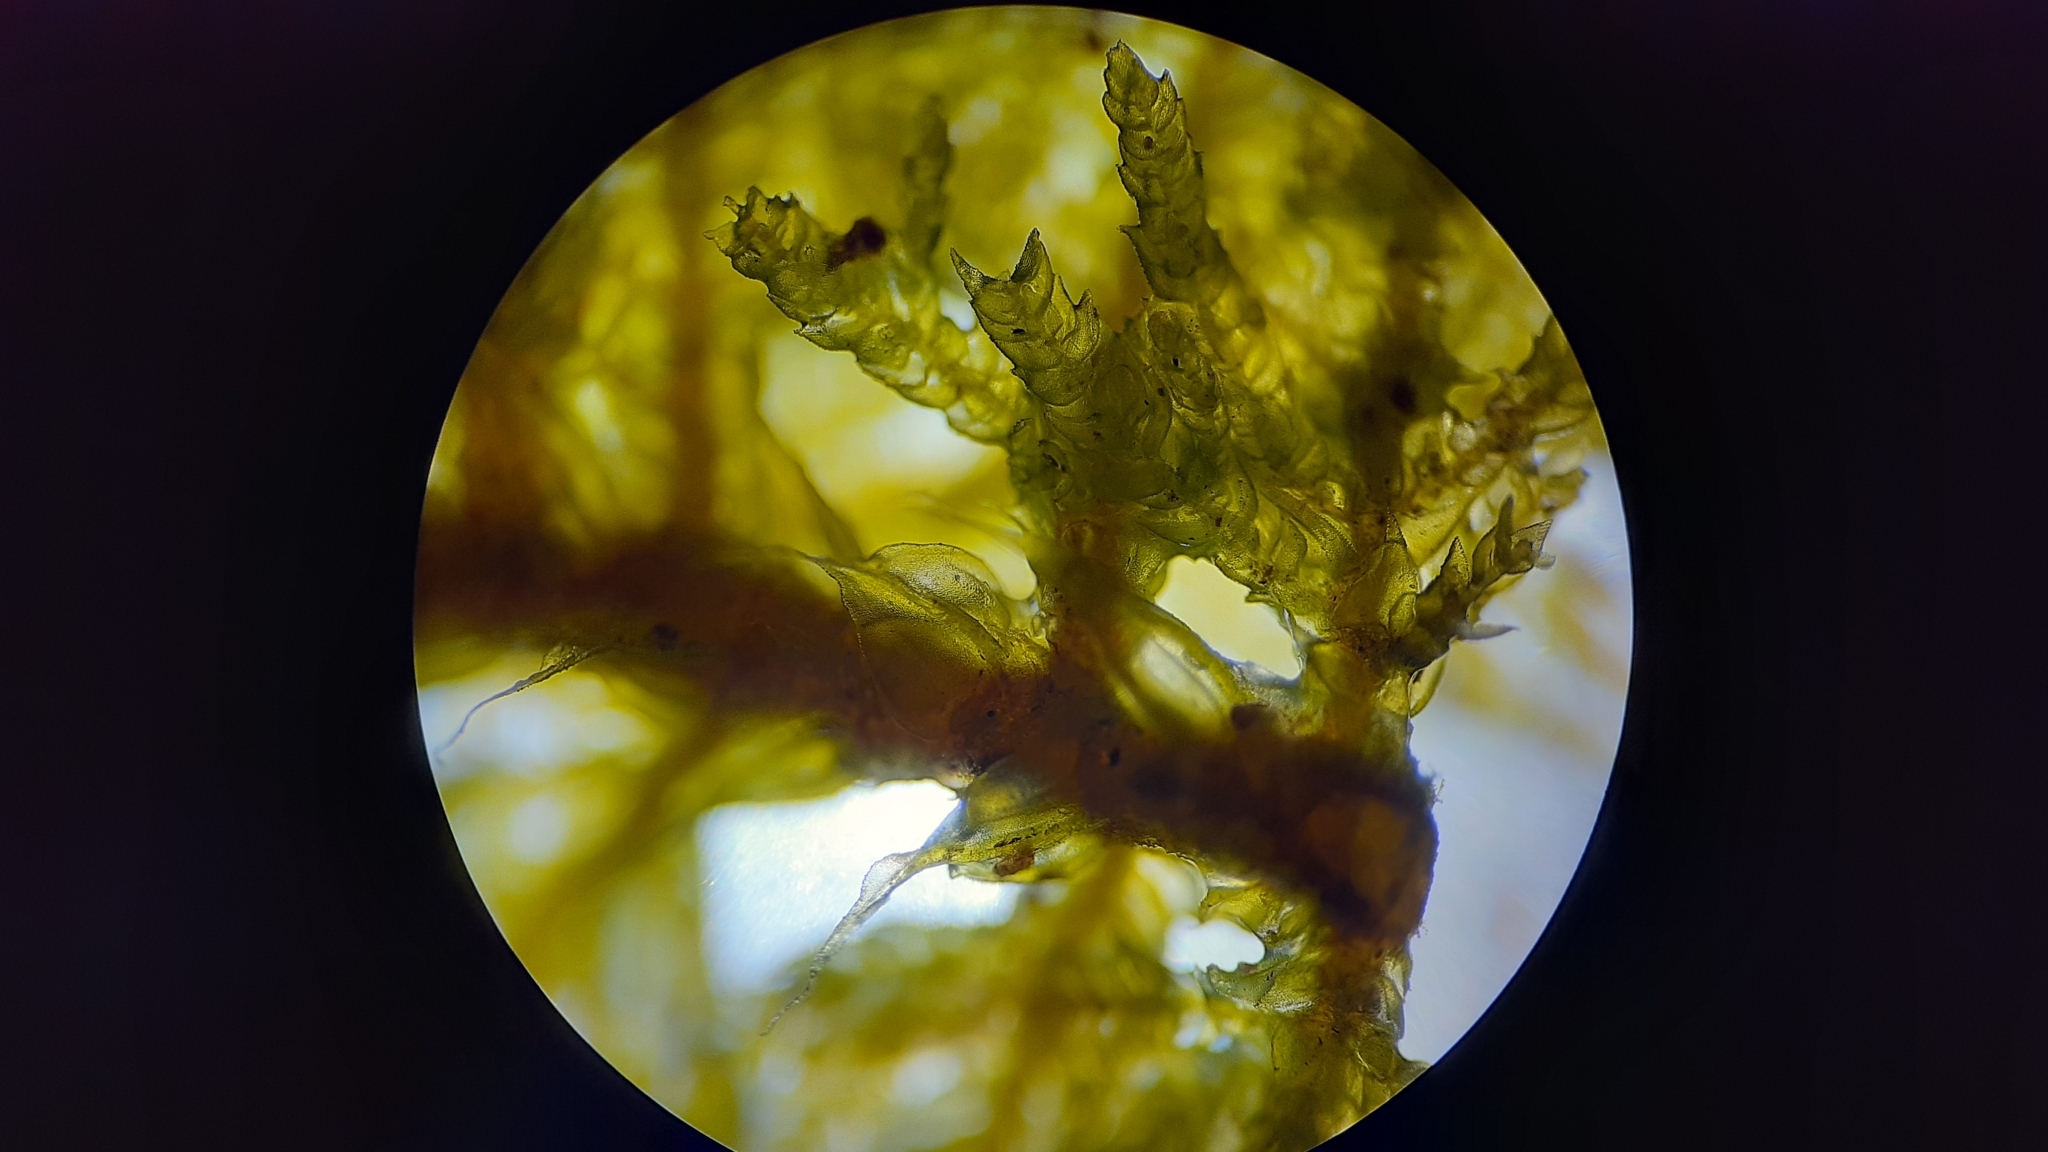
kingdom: Plantae
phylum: Bryophyta
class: Bryopsida
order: Hypnales
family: Thuidiaceae
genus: Thuidium
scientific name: Thuidium delicatulum
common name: Delicate fern moss
